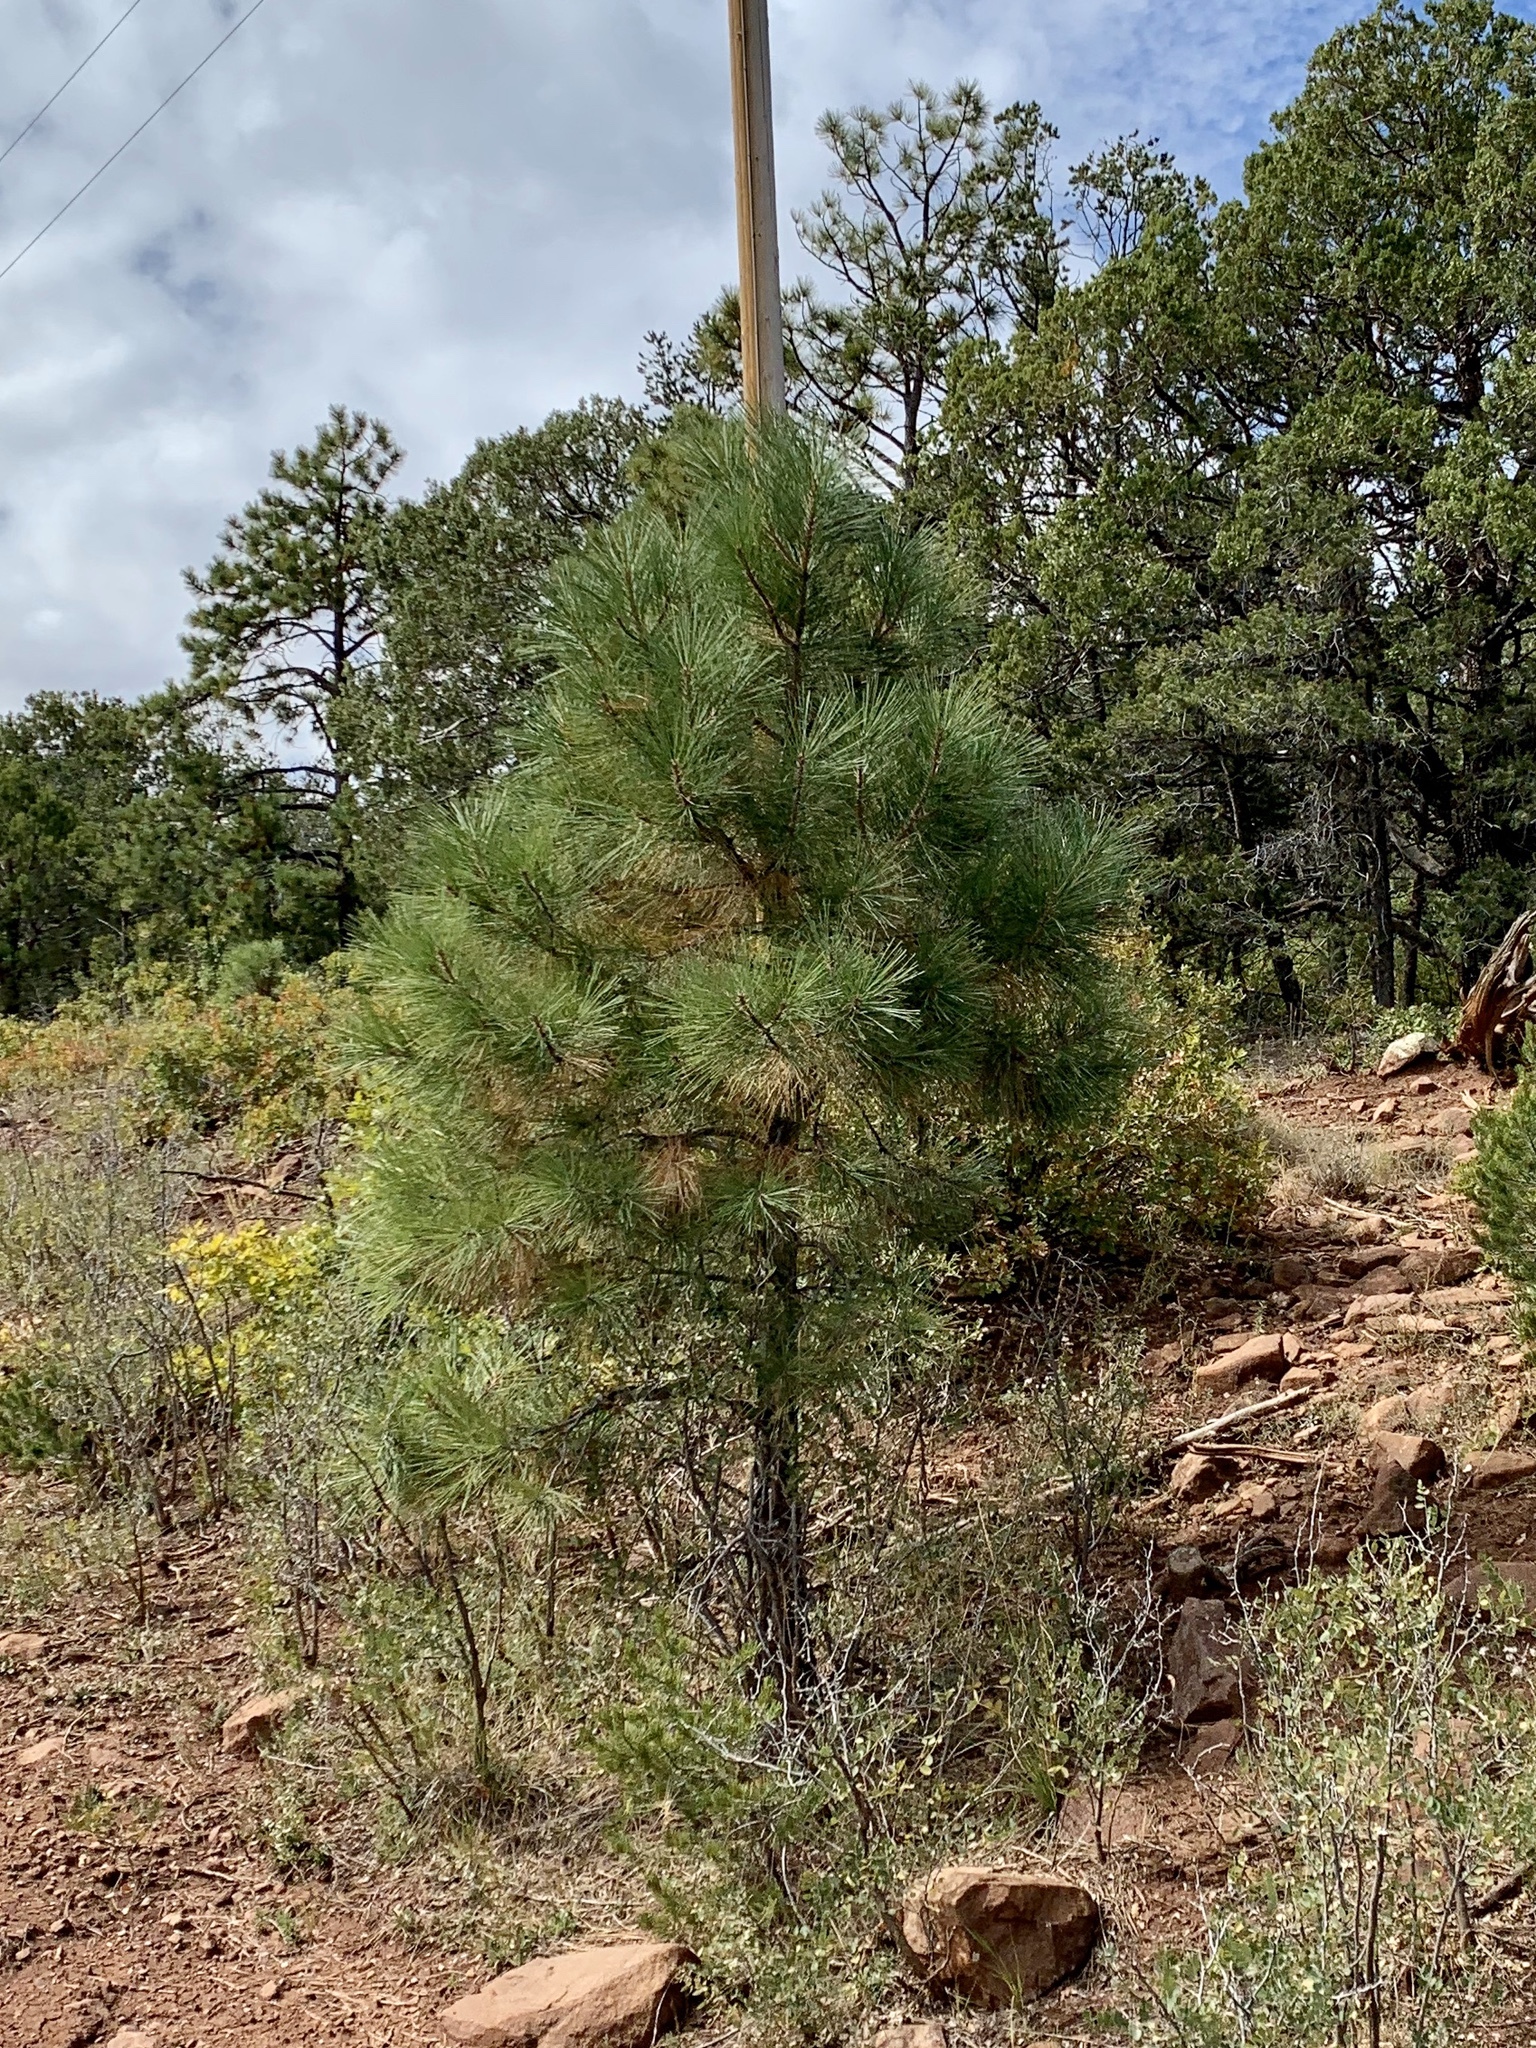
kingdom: Plantae
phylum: Tracheophyta
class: Pinopsida
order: Pinales
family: Pinaceae
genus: Pinus
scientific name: Pinus ponderosa
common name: Western yellow-pine
